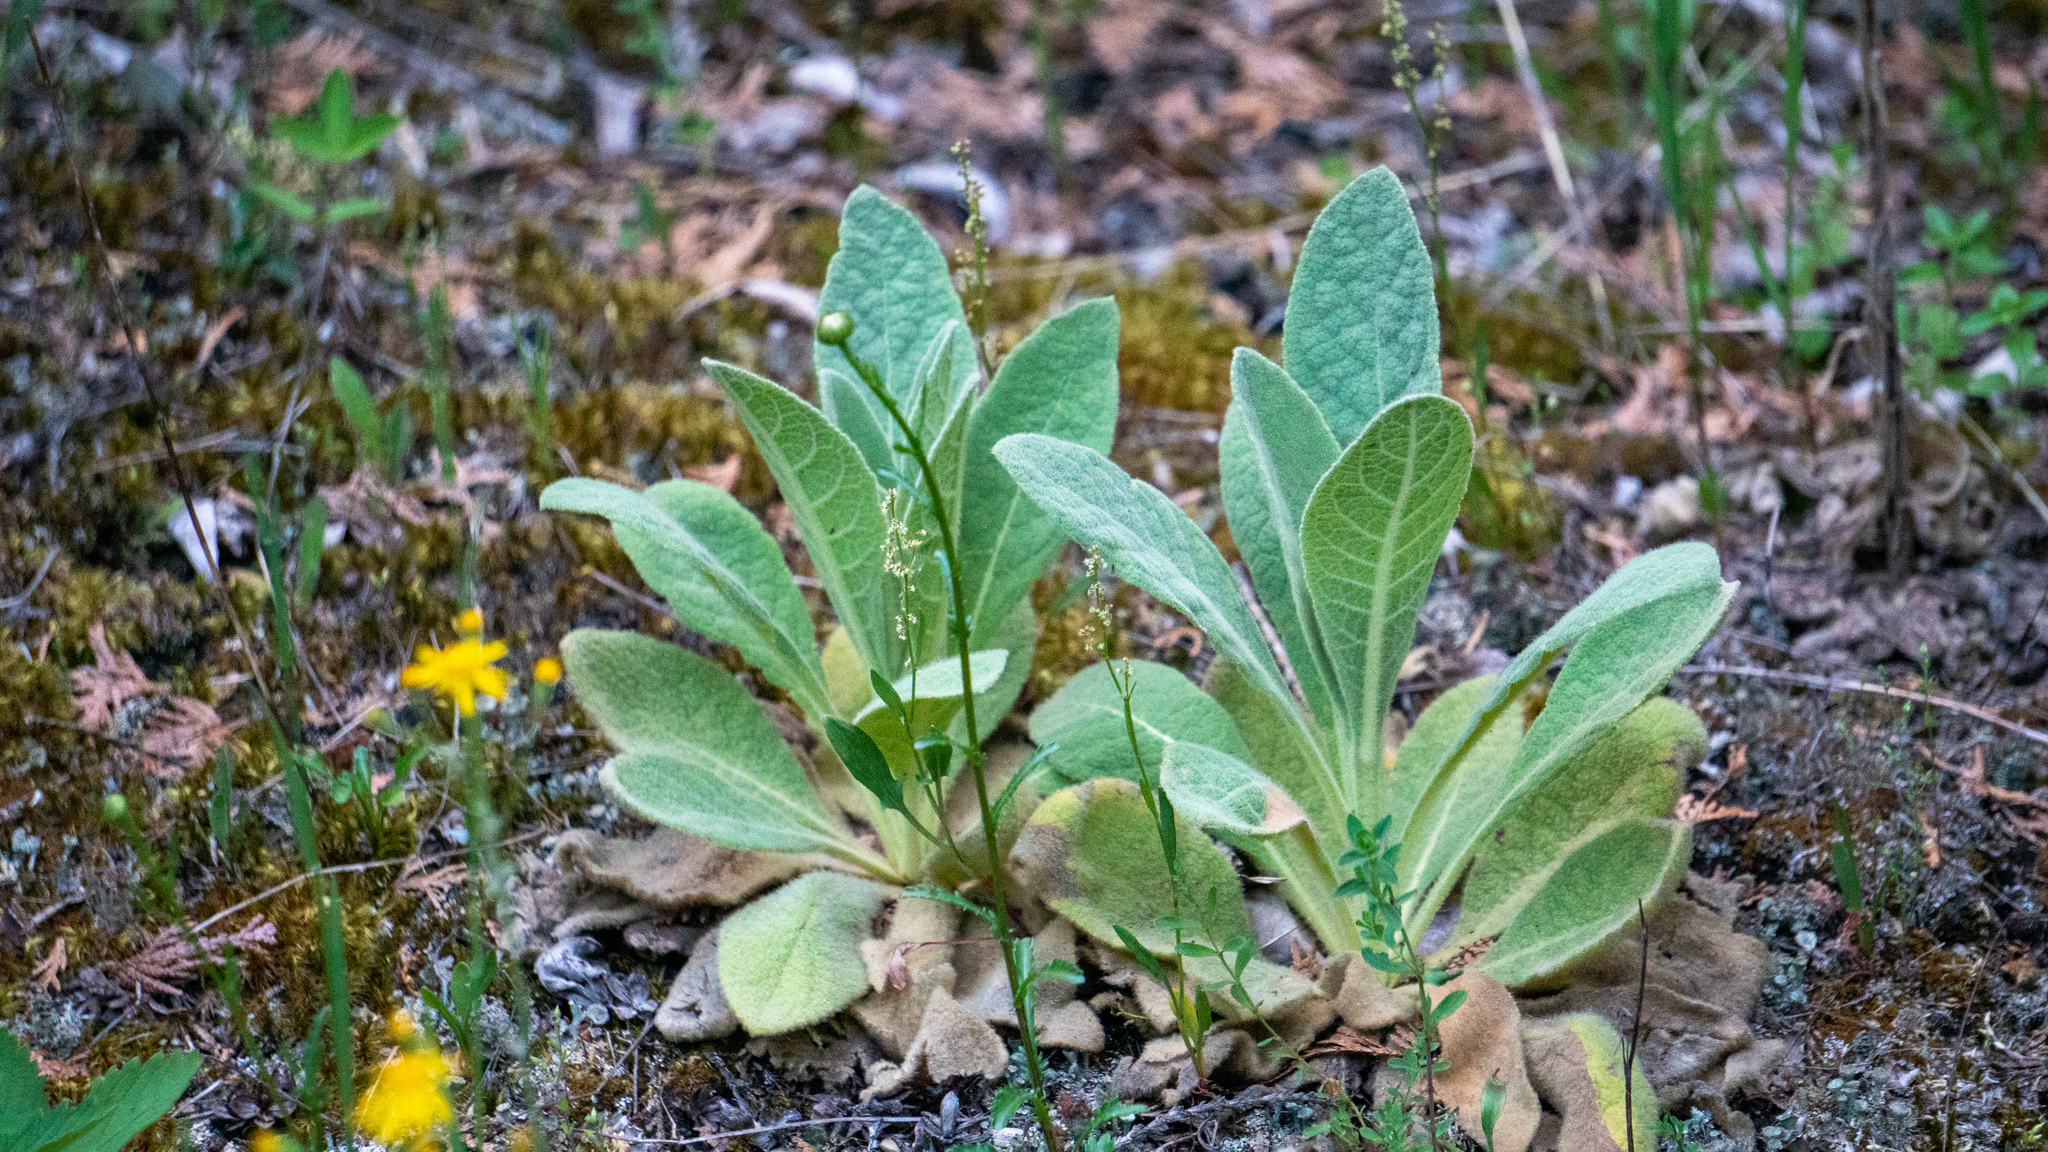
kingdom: Plantae
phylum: Tracheophyta
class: Magnoliopsida
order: Lamiales
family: Scrophulariaceae
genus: Verbascum
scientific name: Verbascum thapsus
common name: Common mullein
